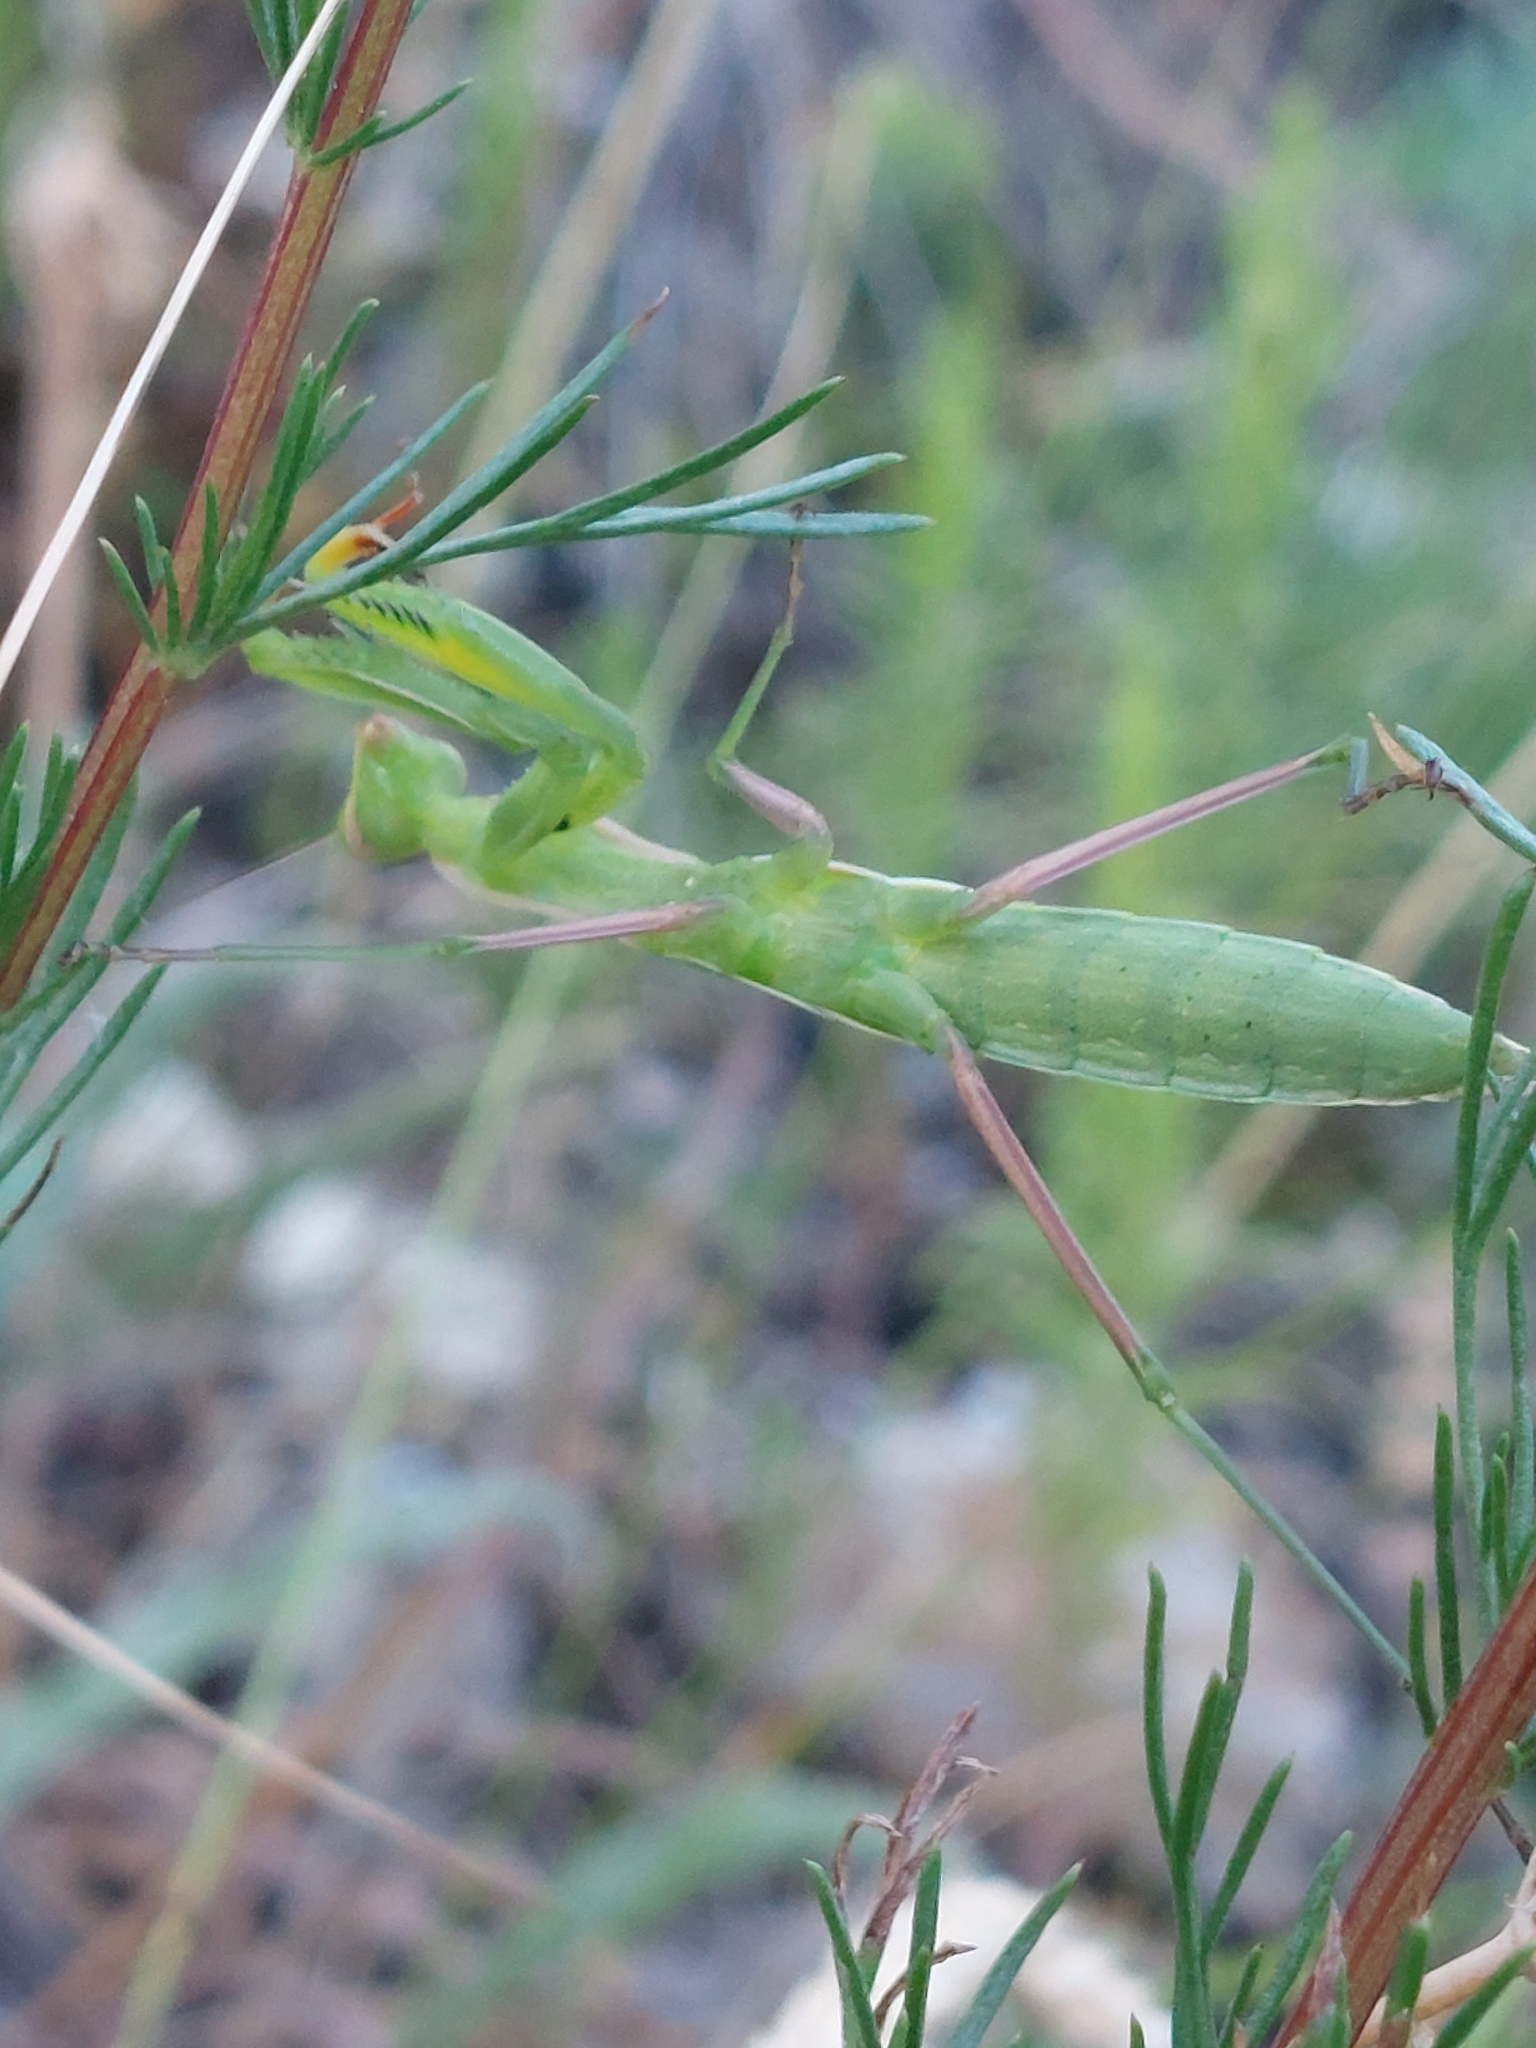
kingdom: Animalia
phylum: Arthropoda
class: Insecta
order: Mantodea
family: Mantidae
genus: Mantis
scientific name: Mantis religiosa
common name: Praying mantis
